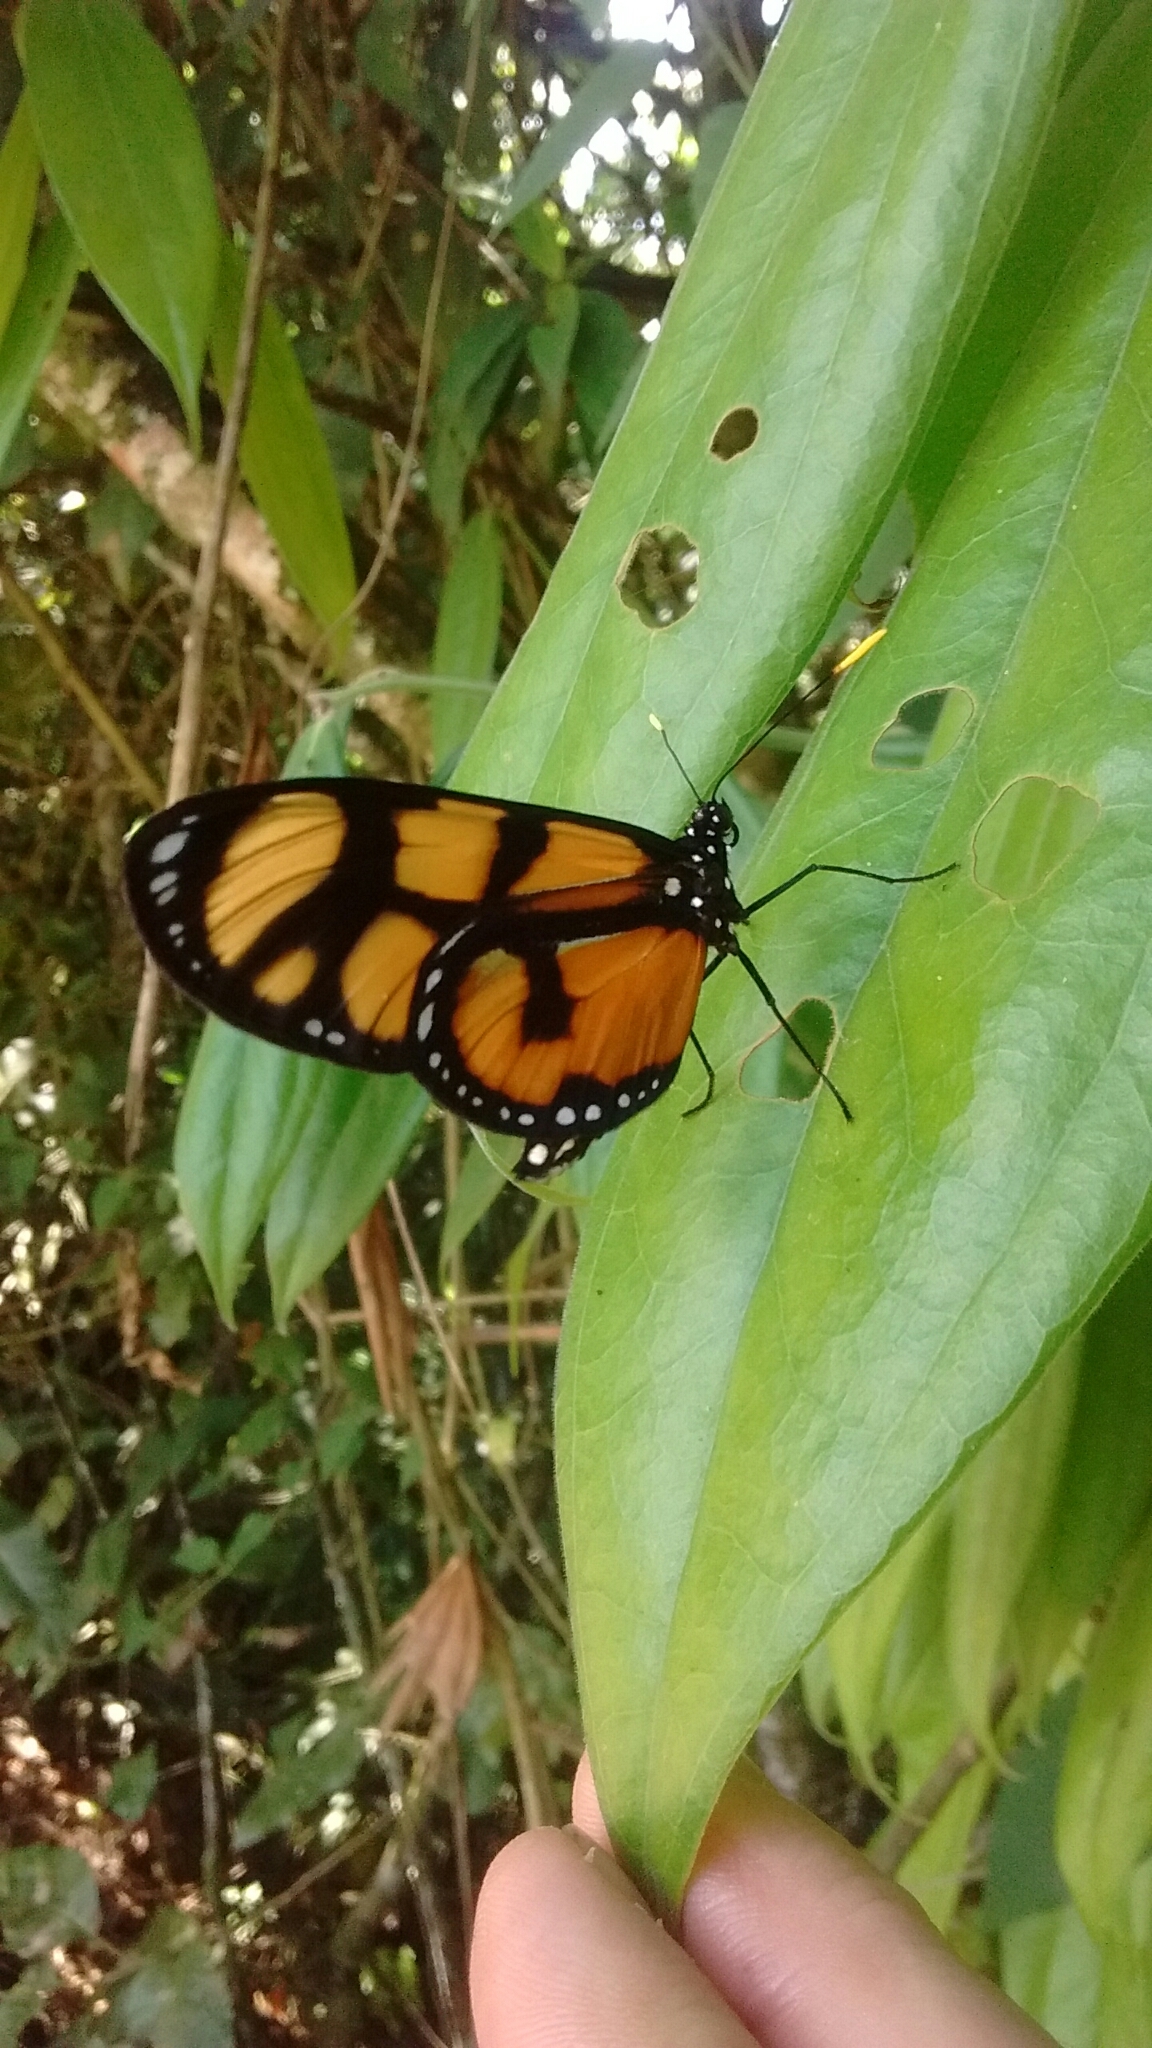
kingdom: Animalia
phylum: Arthropoda
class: Insecta
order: Lepidoptera
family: Nymphalidae
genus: Thyridia
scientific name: Thyridia psidii
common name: Melantho tigerwing
